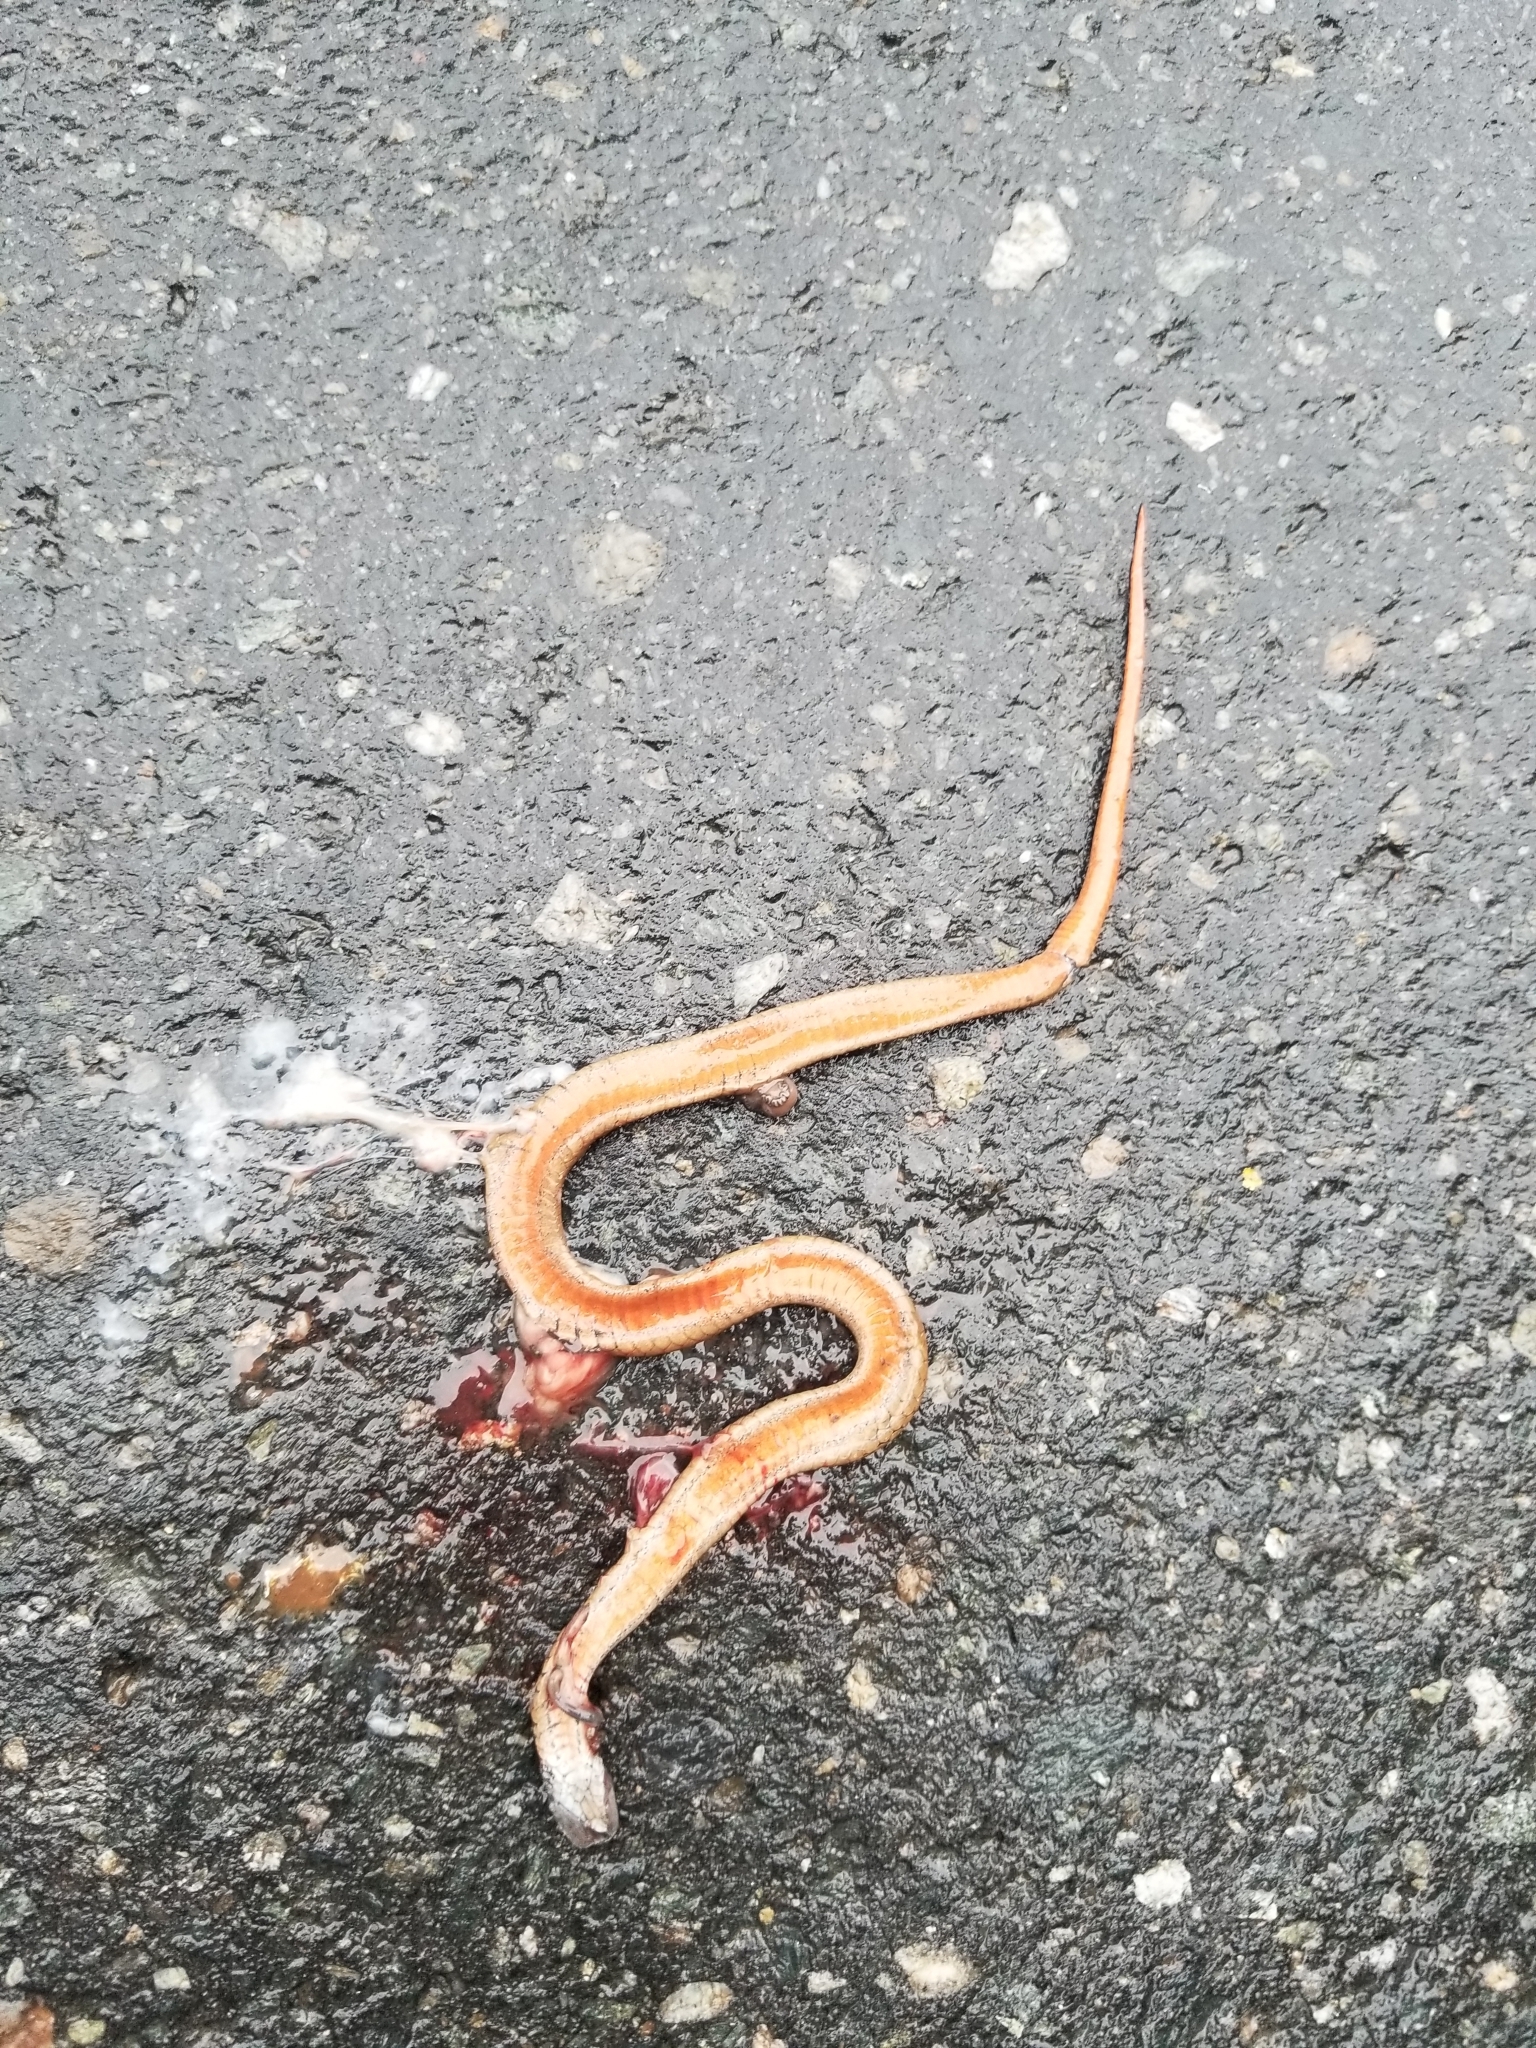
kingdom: Animalia
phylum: Chordata
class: Squamata
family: Colubridae
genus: Storeria
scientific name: Storeria occipitomaculata
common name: Redbelly snake
